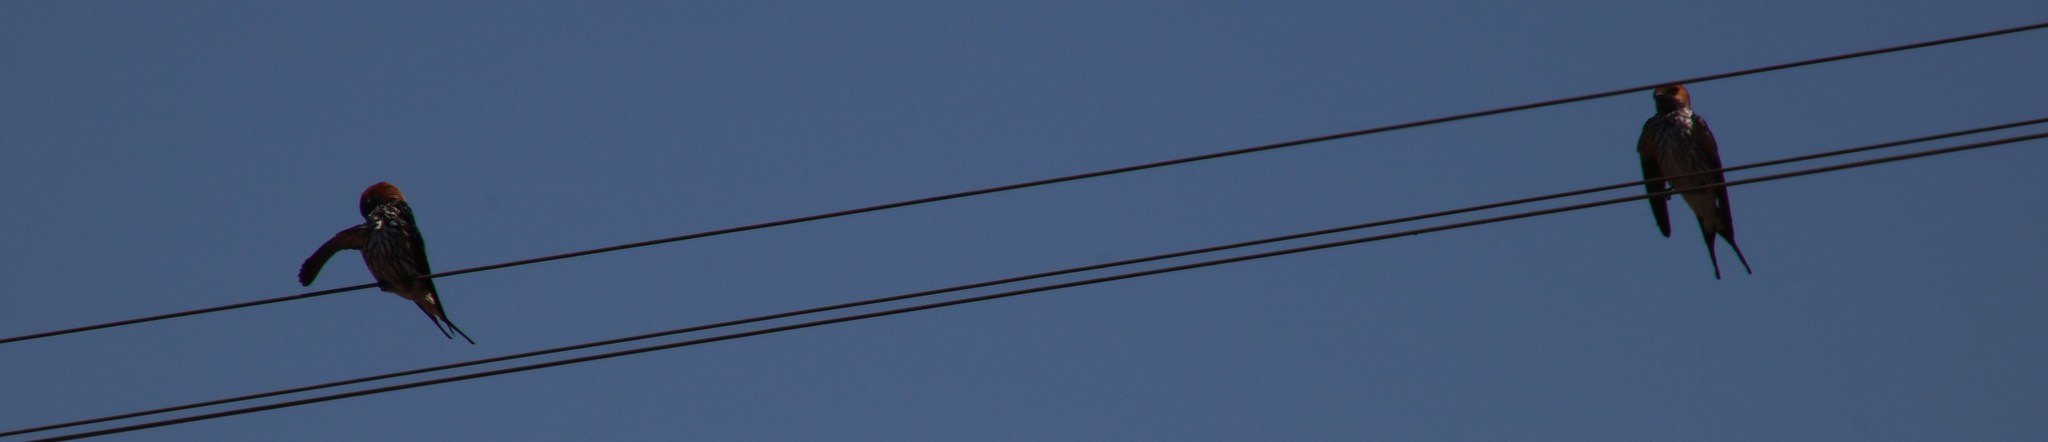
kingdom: Animalia
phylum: Chordata
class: Aves
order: Passeriformes
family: Hirundinidae
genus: Cecropis
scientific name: Cecropis abyssinica
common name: Lesser striped-swallow
